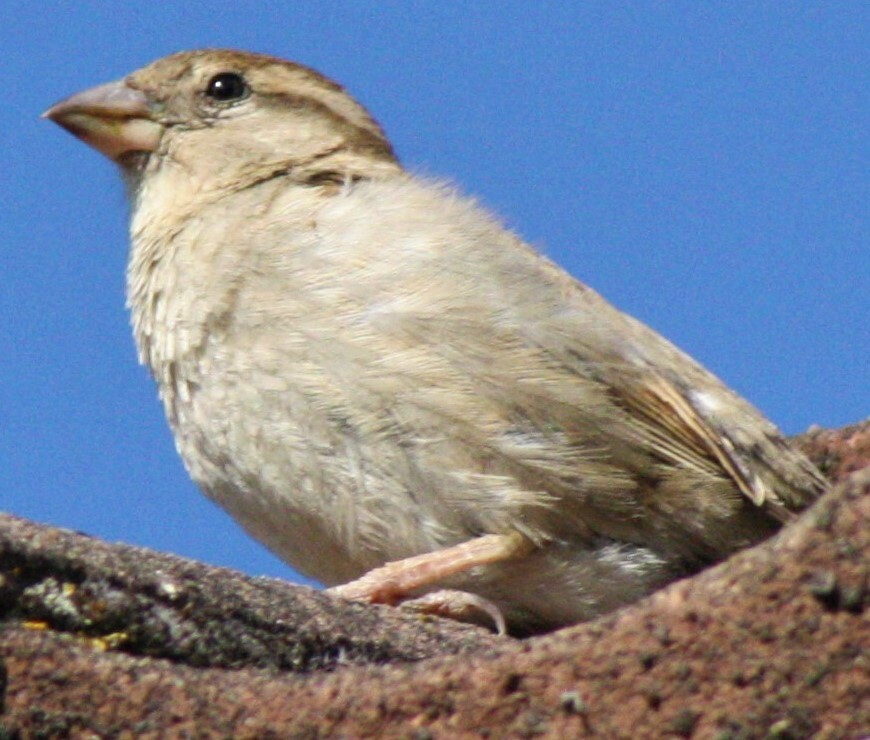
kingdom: Animalia
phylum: Chordata
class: Aves
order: Passeriformes
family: Passeridae
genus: Passer
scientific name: Passer domesticus
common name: House sparrow
